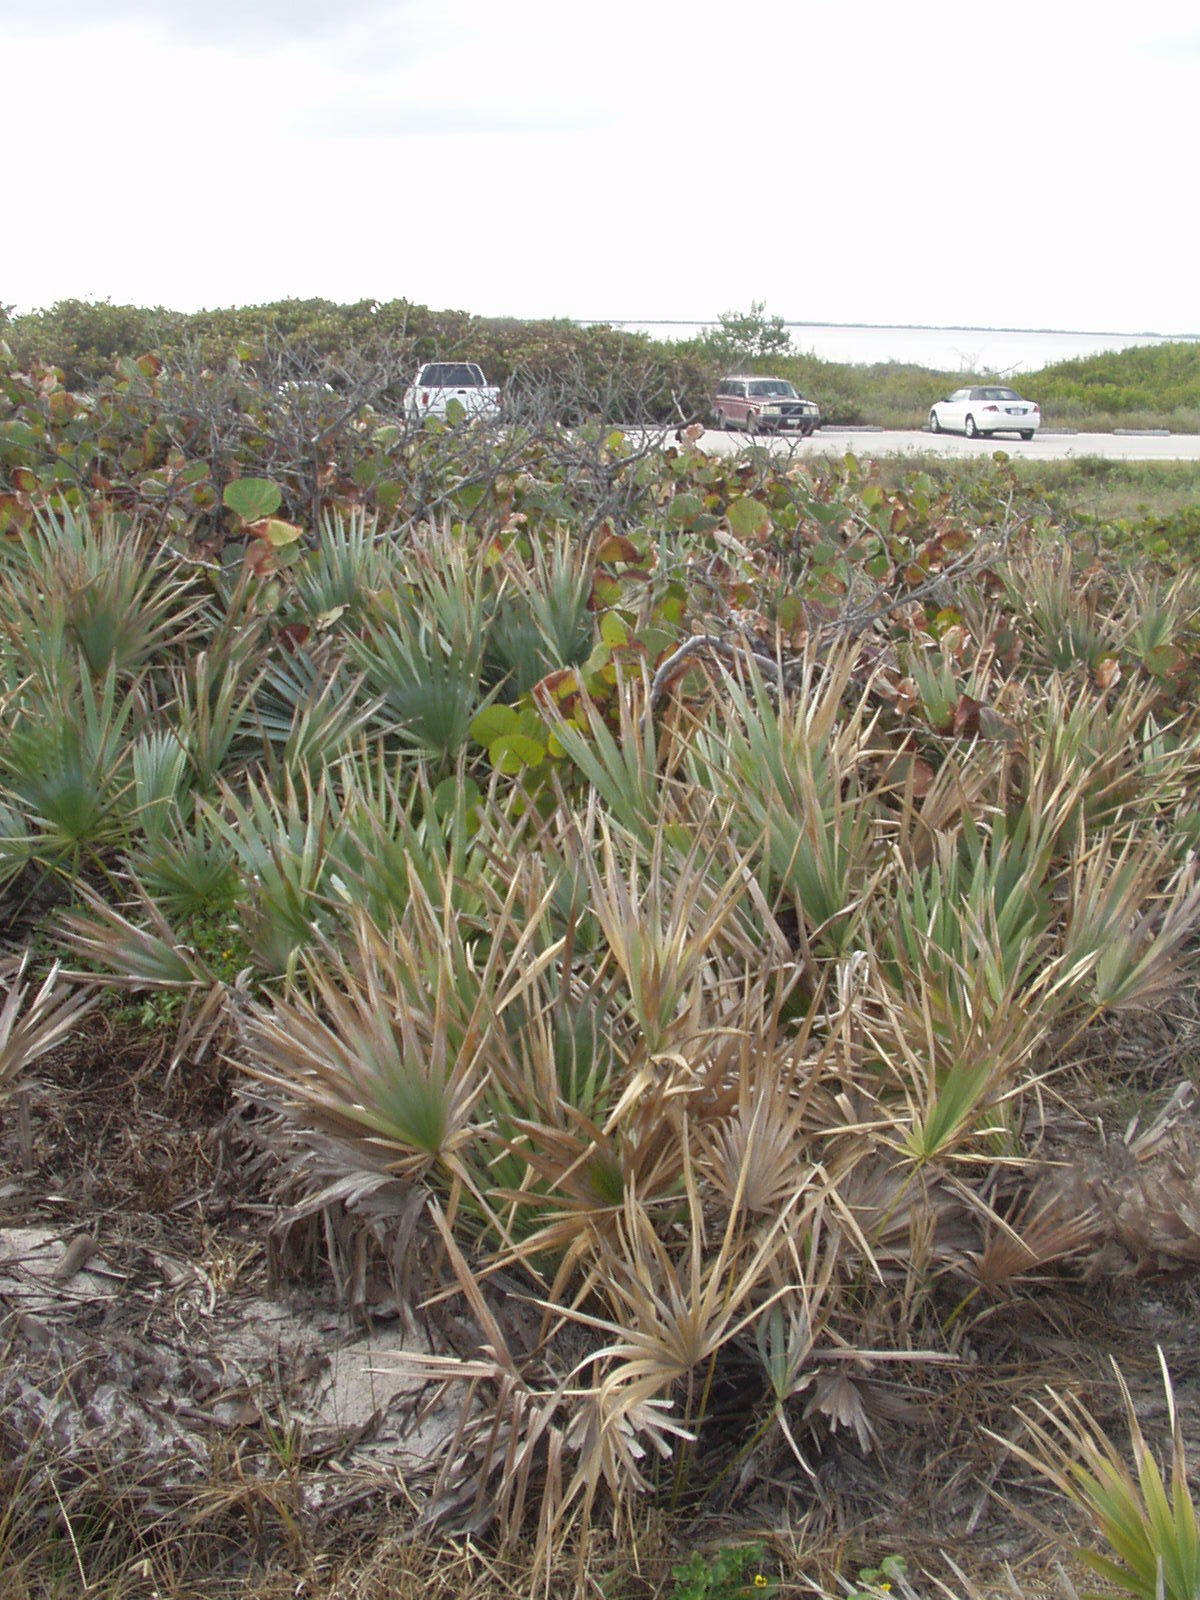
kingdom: Plantae
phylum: Tracheophyta
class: Magnoliopsida
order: Caryophyllales
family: Polygonaceae
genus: Coccoloba
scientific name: Coccoloba uvifera
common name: Seagrape
